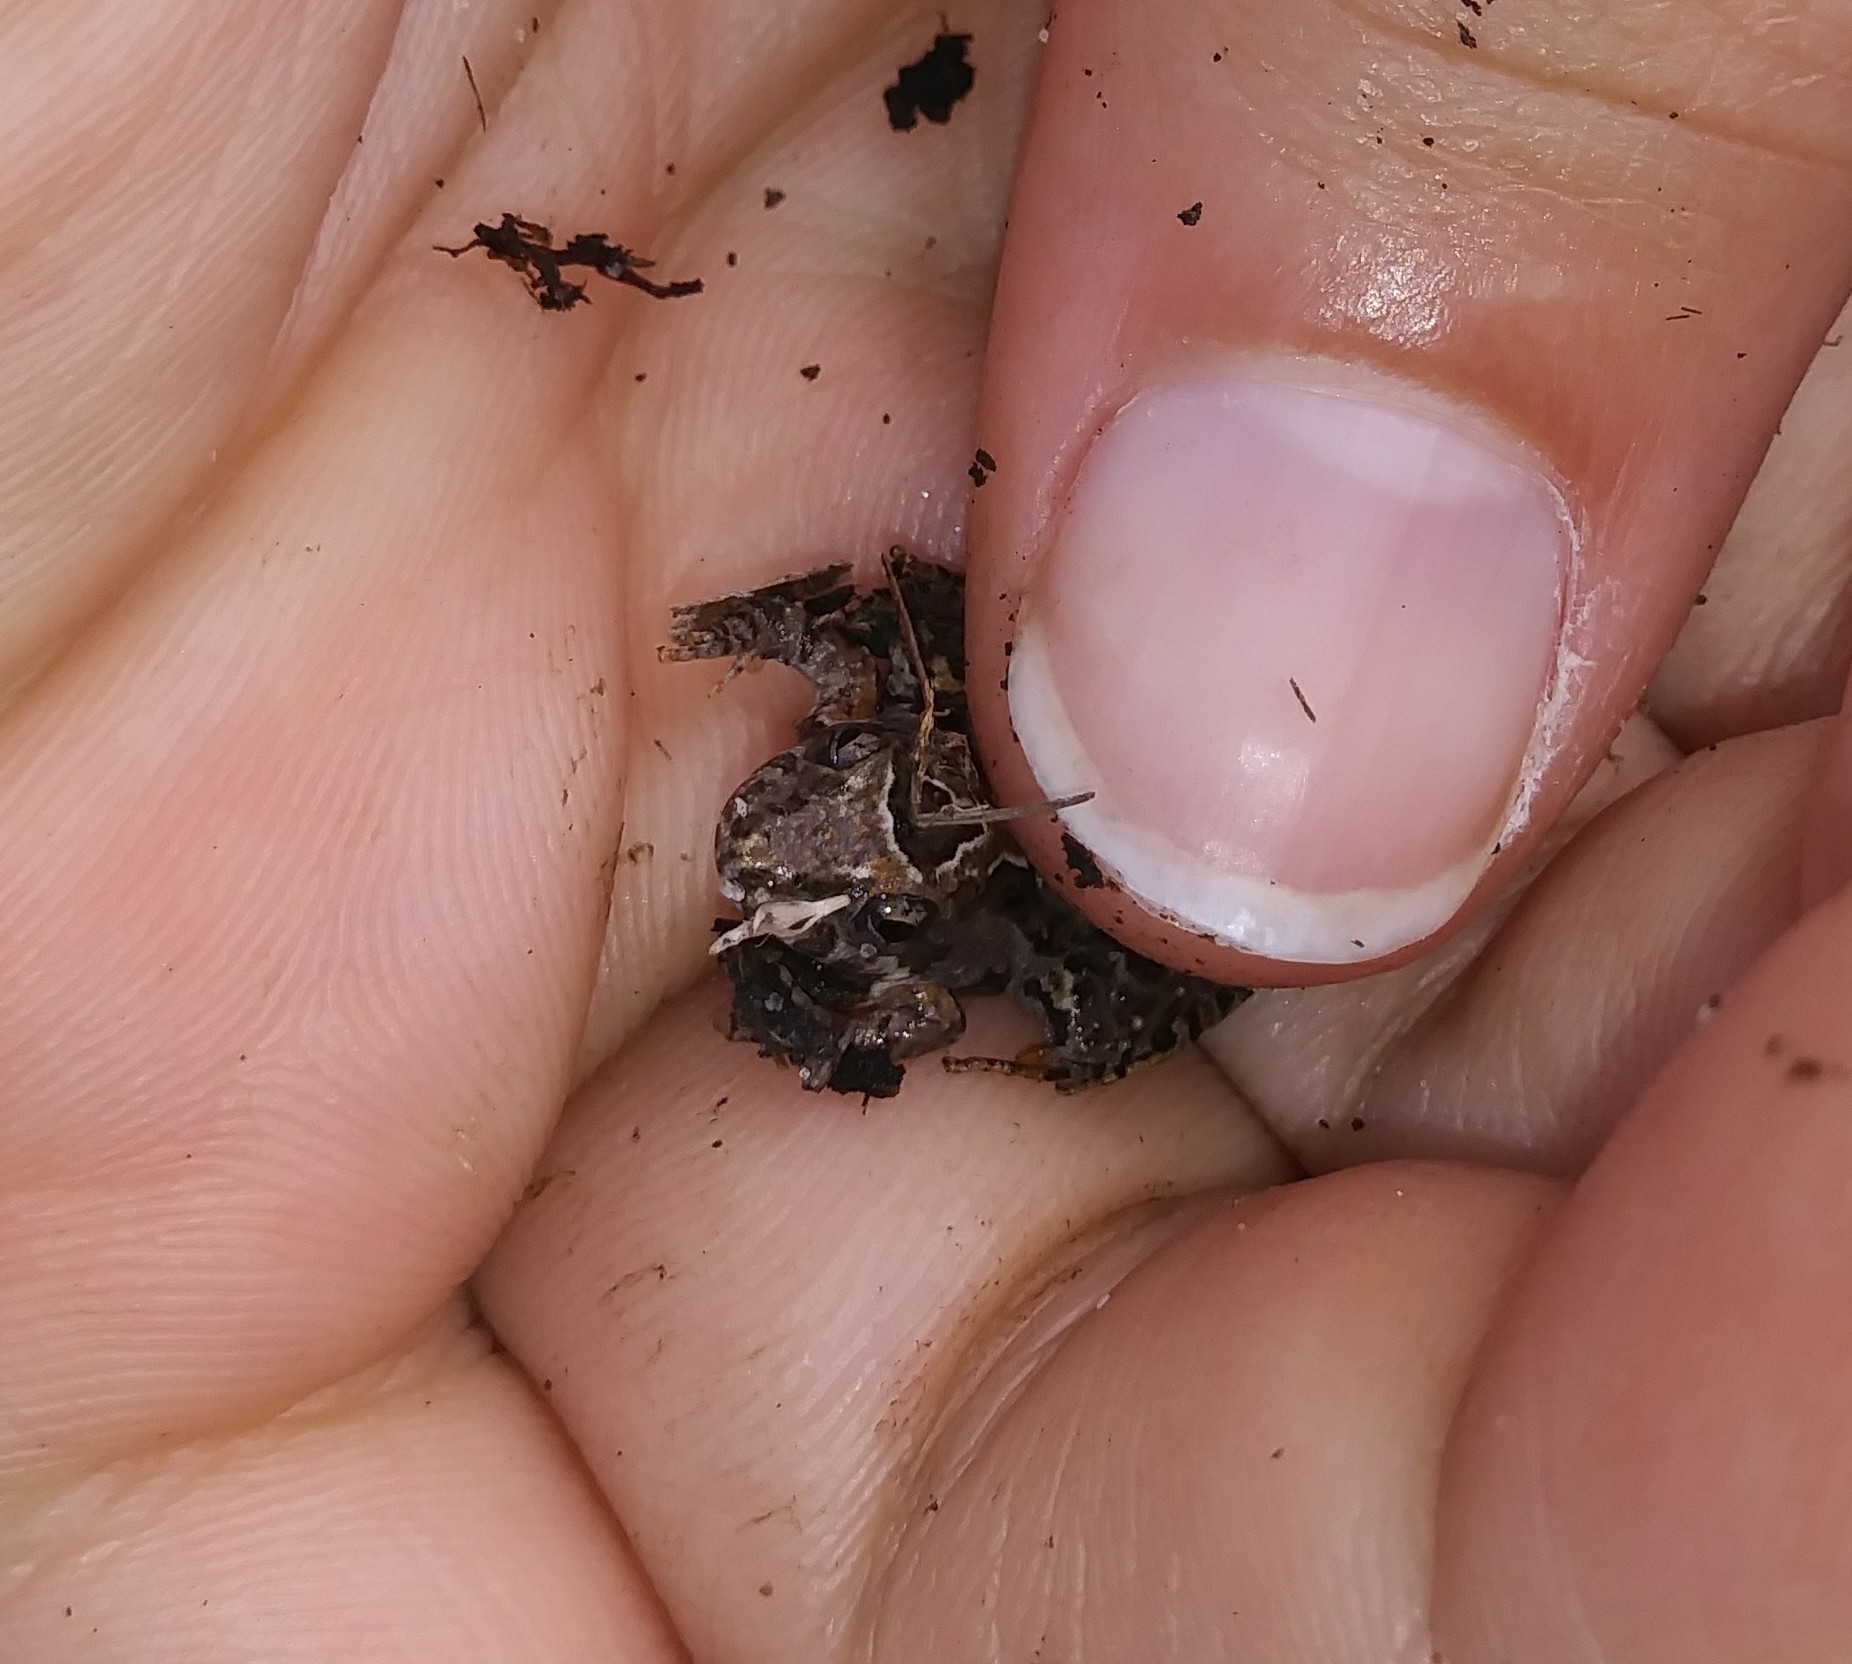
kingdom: Animalia
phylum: Chordata
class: Amphibia
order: Anura
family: Hylidae
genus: Acris
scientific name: Acris gryllus
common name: Southern cricket frog
